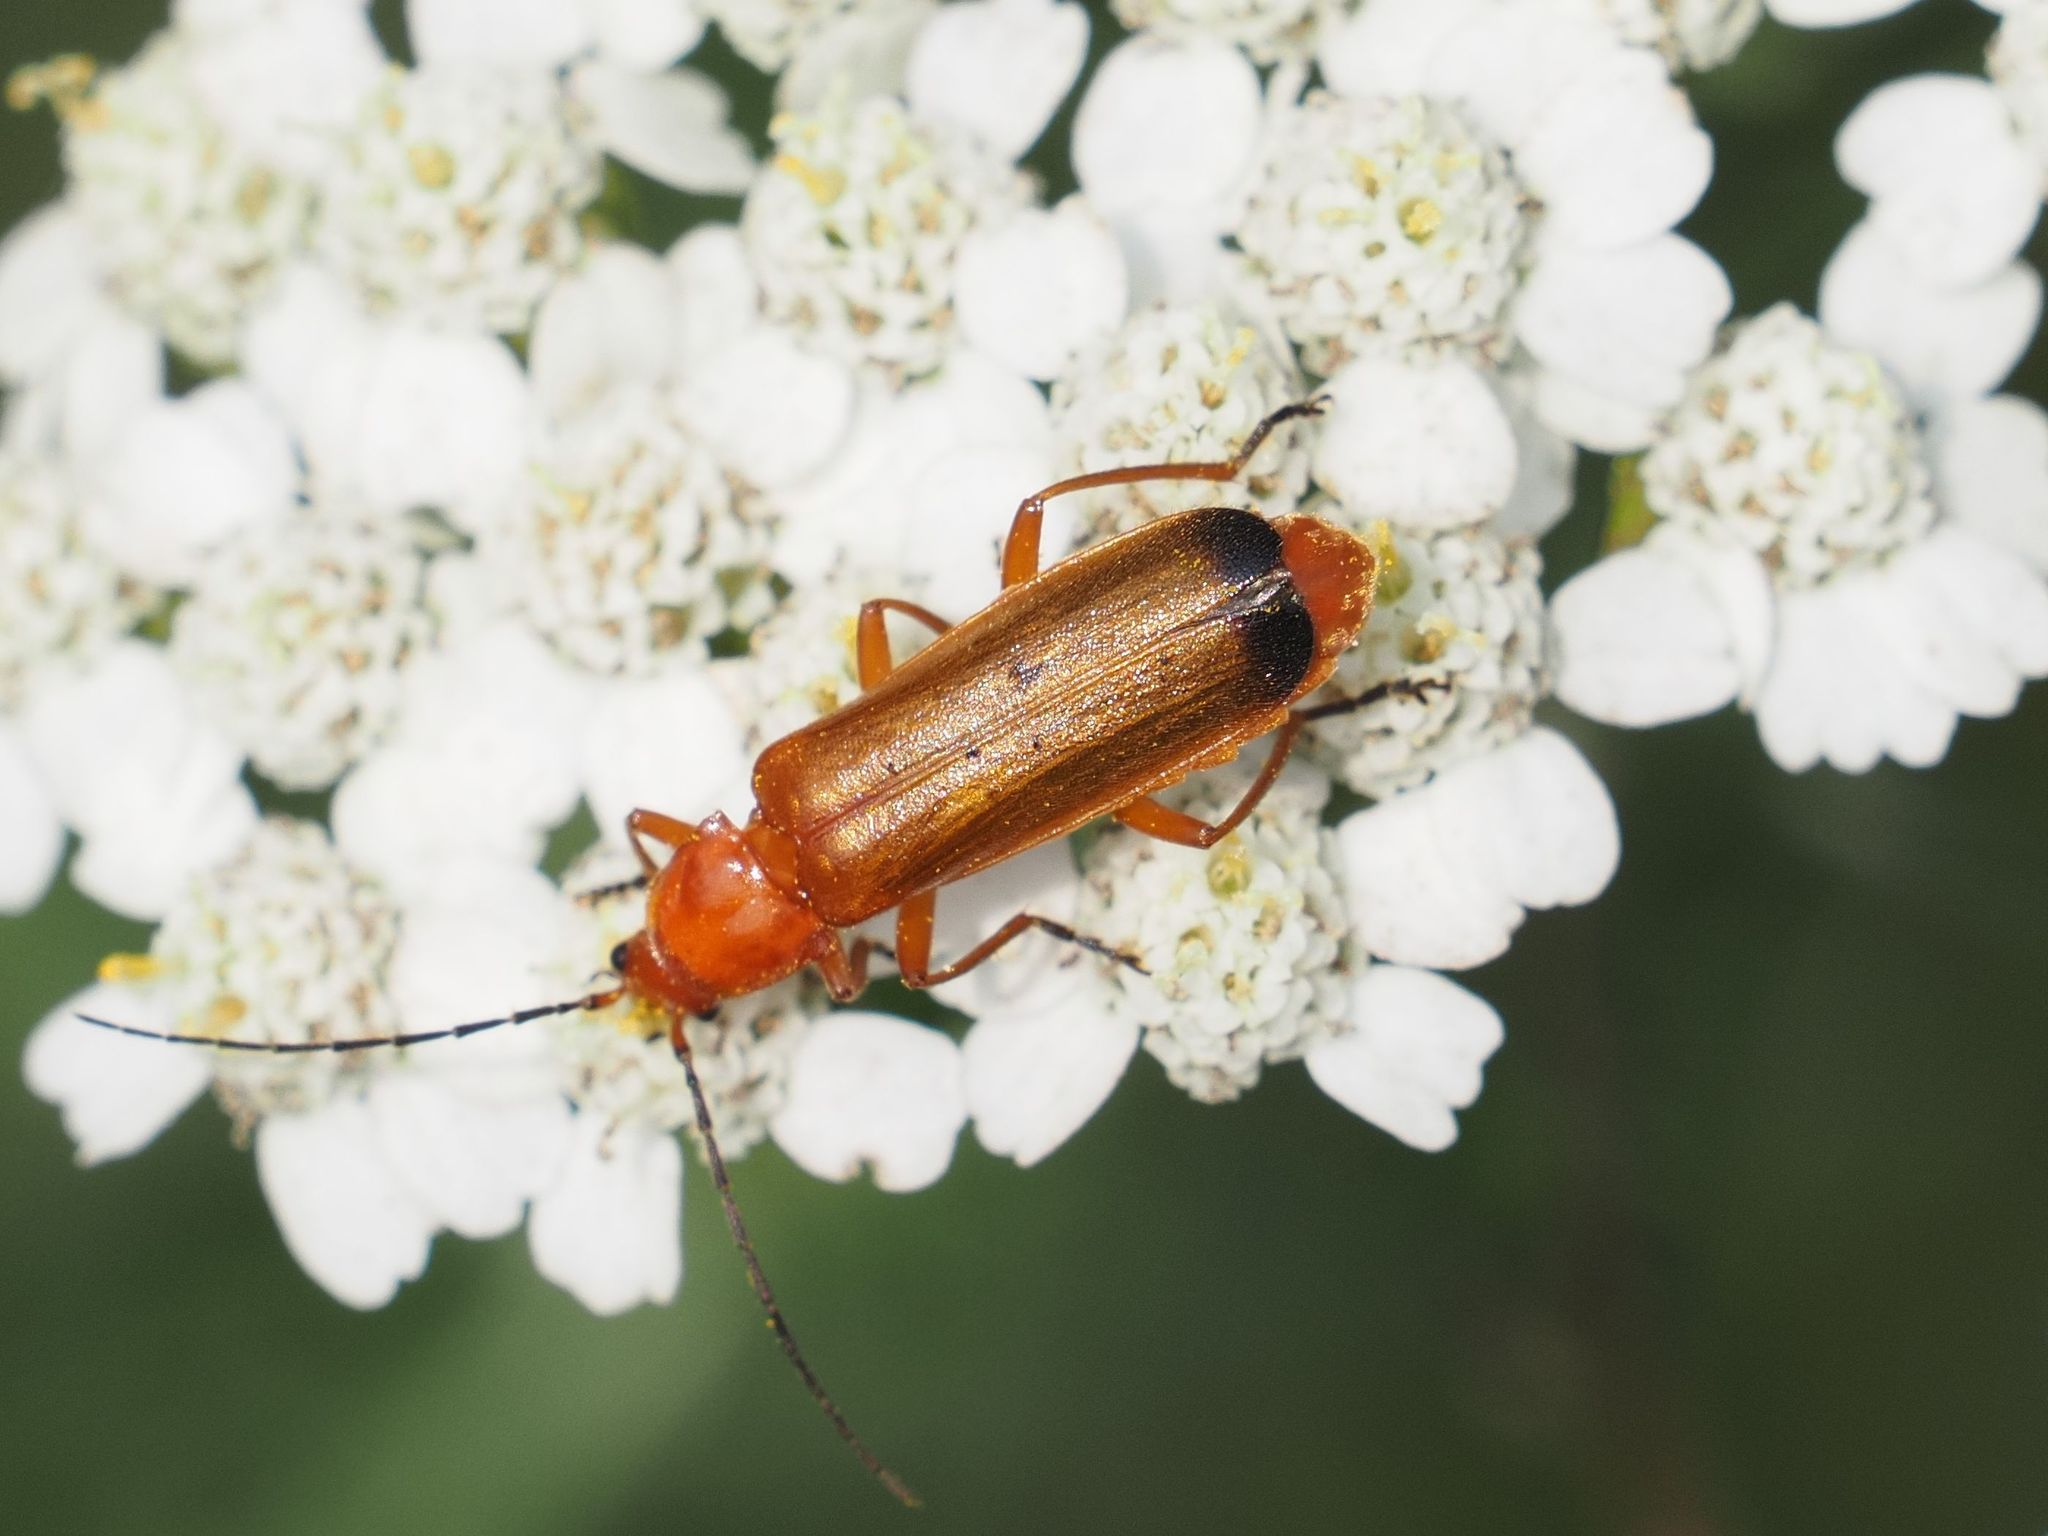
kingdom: Animalia
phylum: Arthropoda
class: Insecta
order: Coleoptera
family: Cantharidae
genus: Rhagonycha
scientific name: Rhagonycha fulva
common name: Common red soldier beetle
